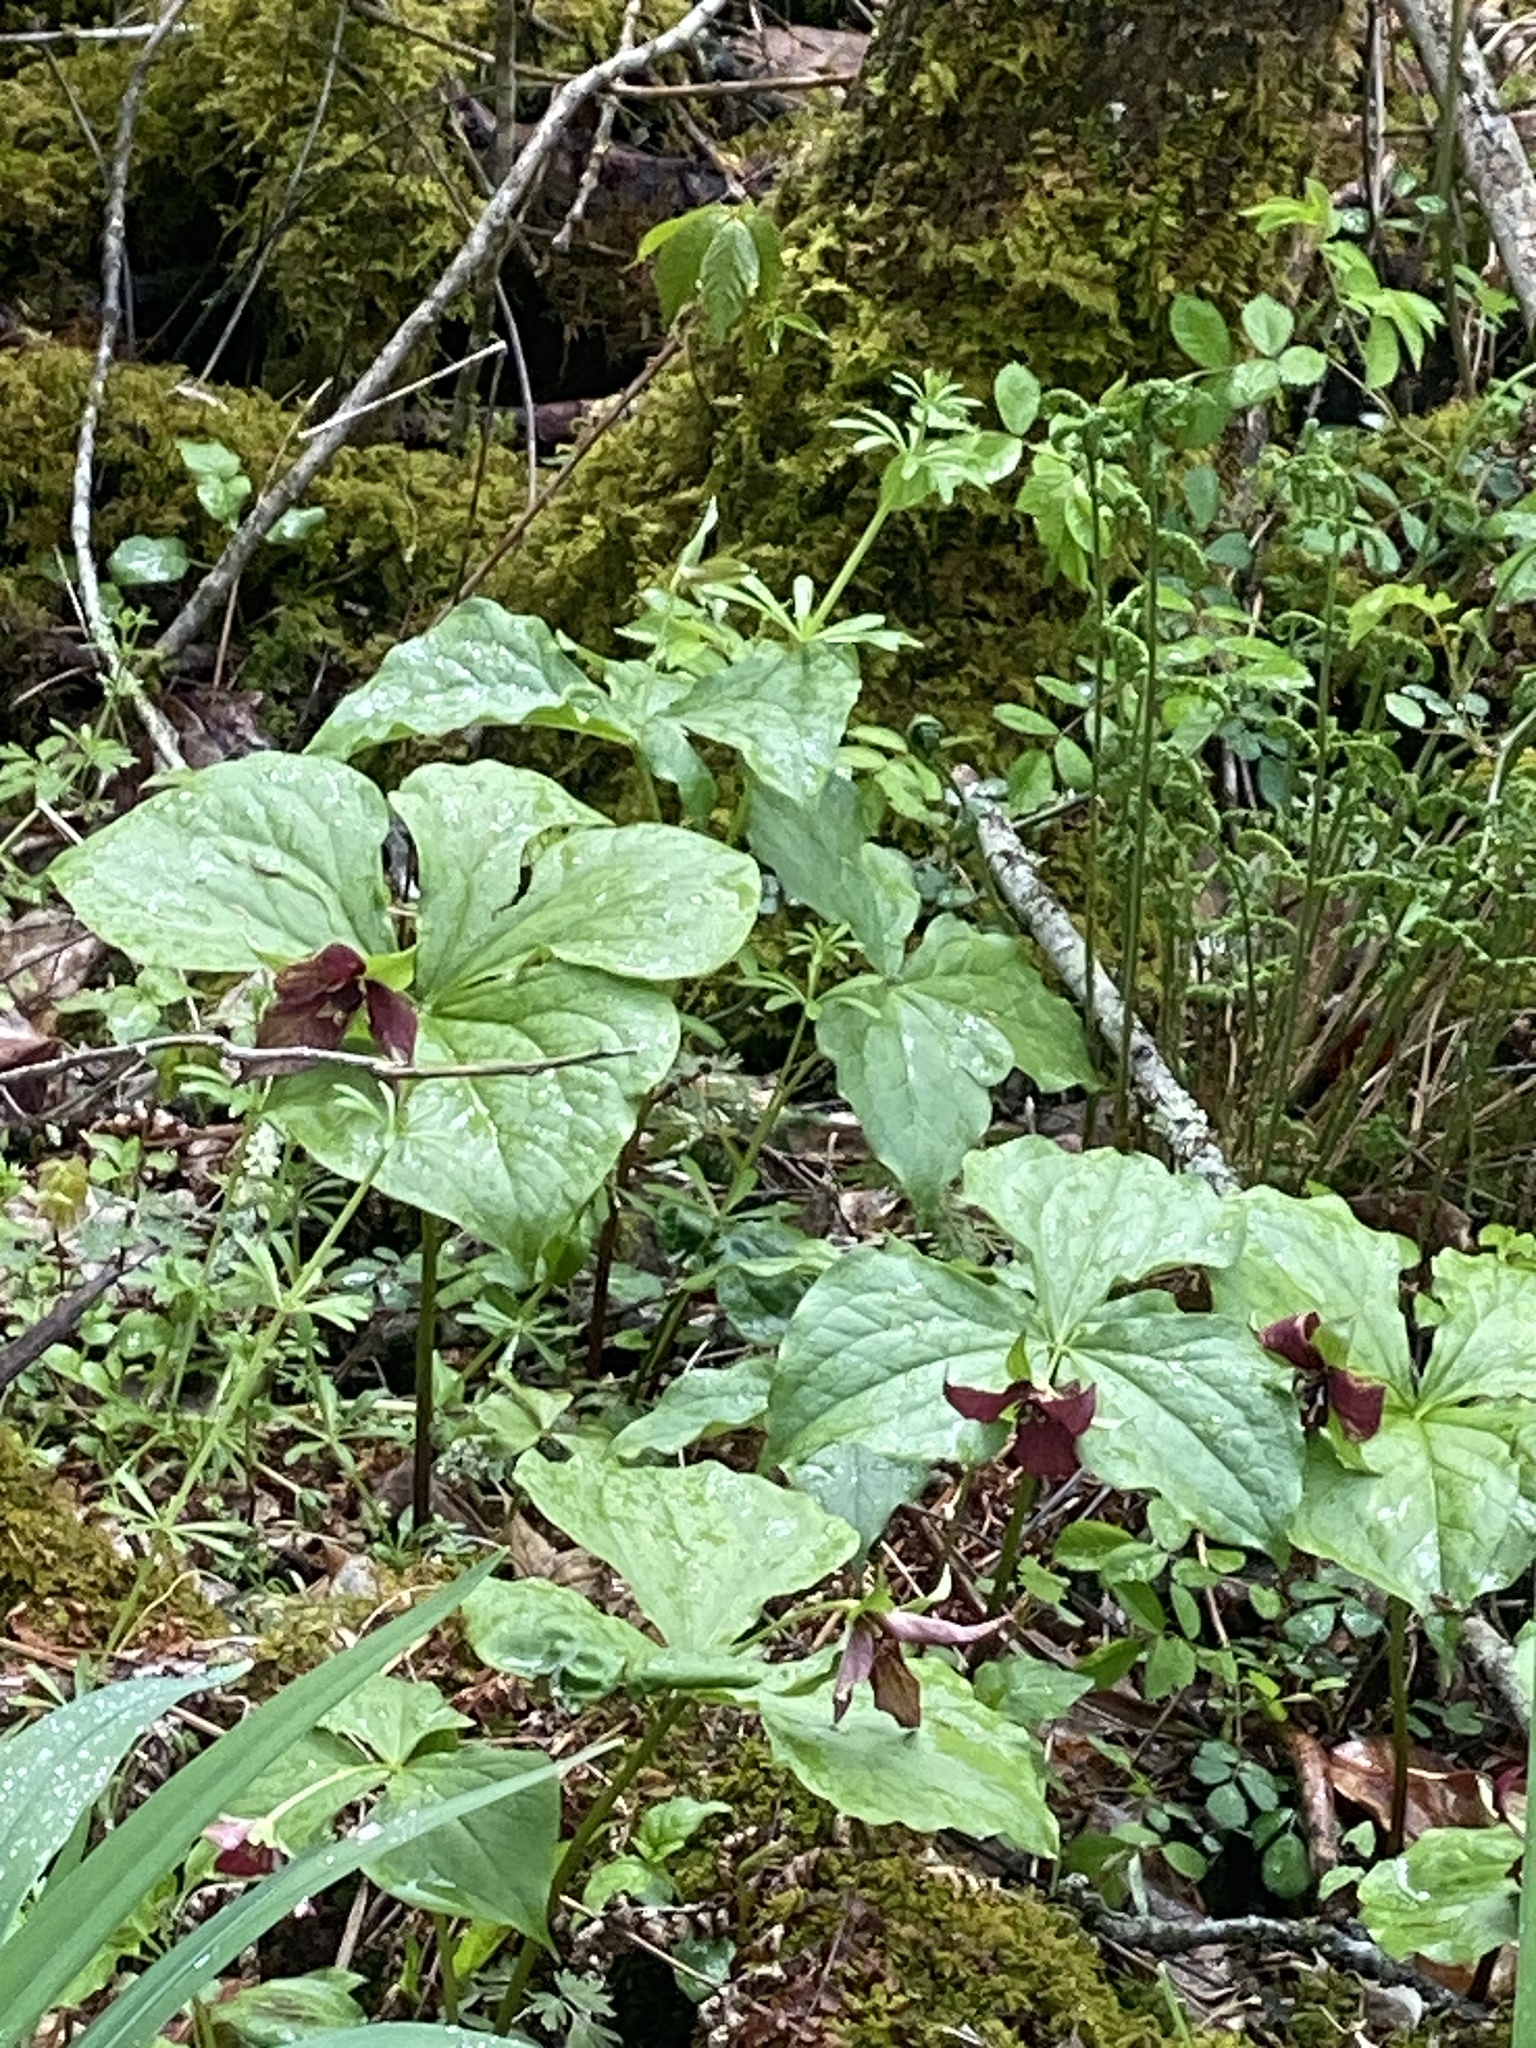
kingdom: Plantae
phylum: Tracheophyta
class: Liliopsida
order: Liliales
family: Melanthiaceae
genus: Trillium
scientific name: Trillium erectum
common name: Purple trillium
